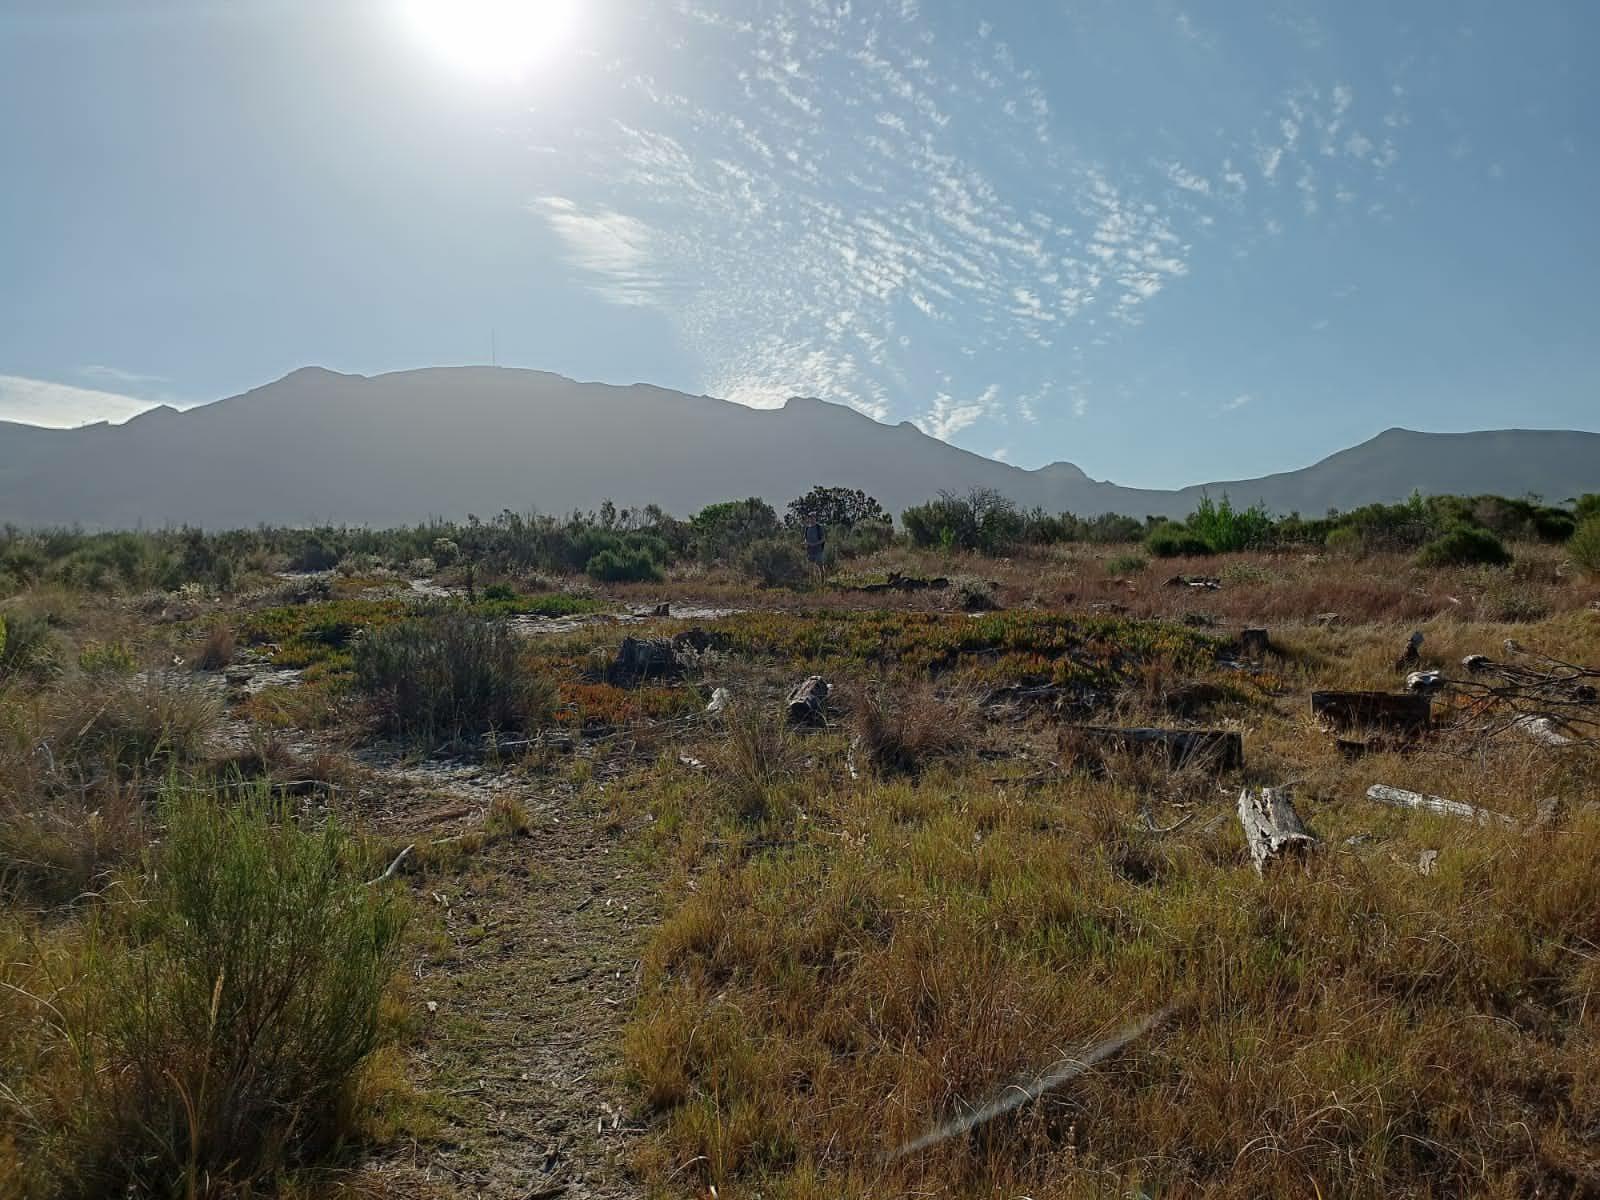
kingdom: Plantae
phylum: Tracheophyta
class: Magnoliopsida
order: Malvales
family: Thymelaeaceae
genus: Passerina
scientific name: Passerina corymbosa
